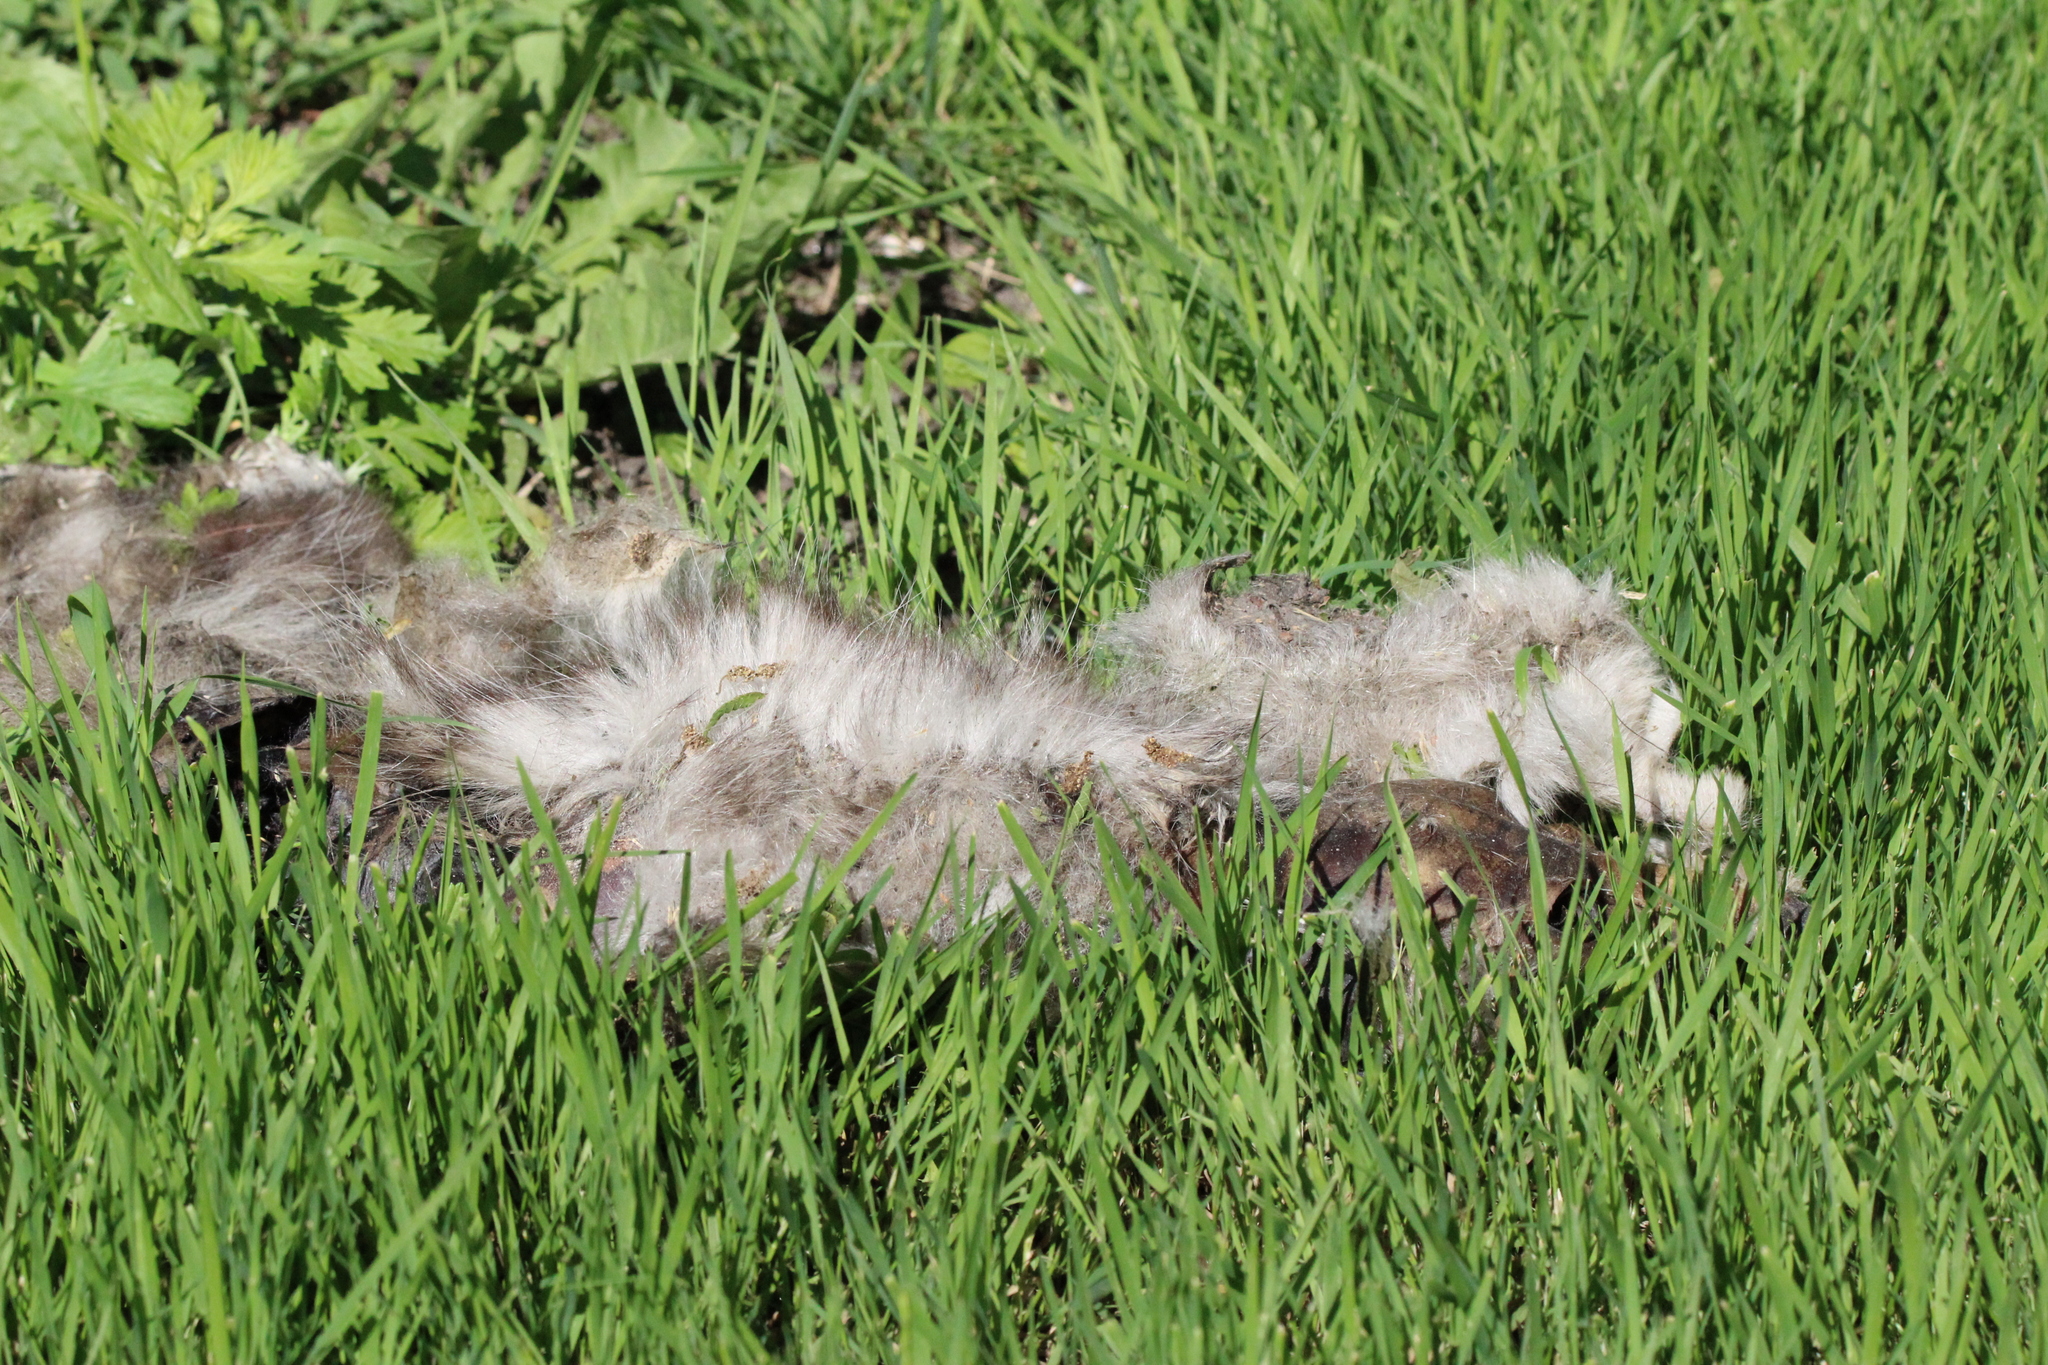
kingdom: Animalia
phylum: Chordata
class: Mammalia
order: Didelphimorphia
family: Didelphidae
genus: Didelphis
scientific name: Didelphis virginiana
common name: Virginia opossum
